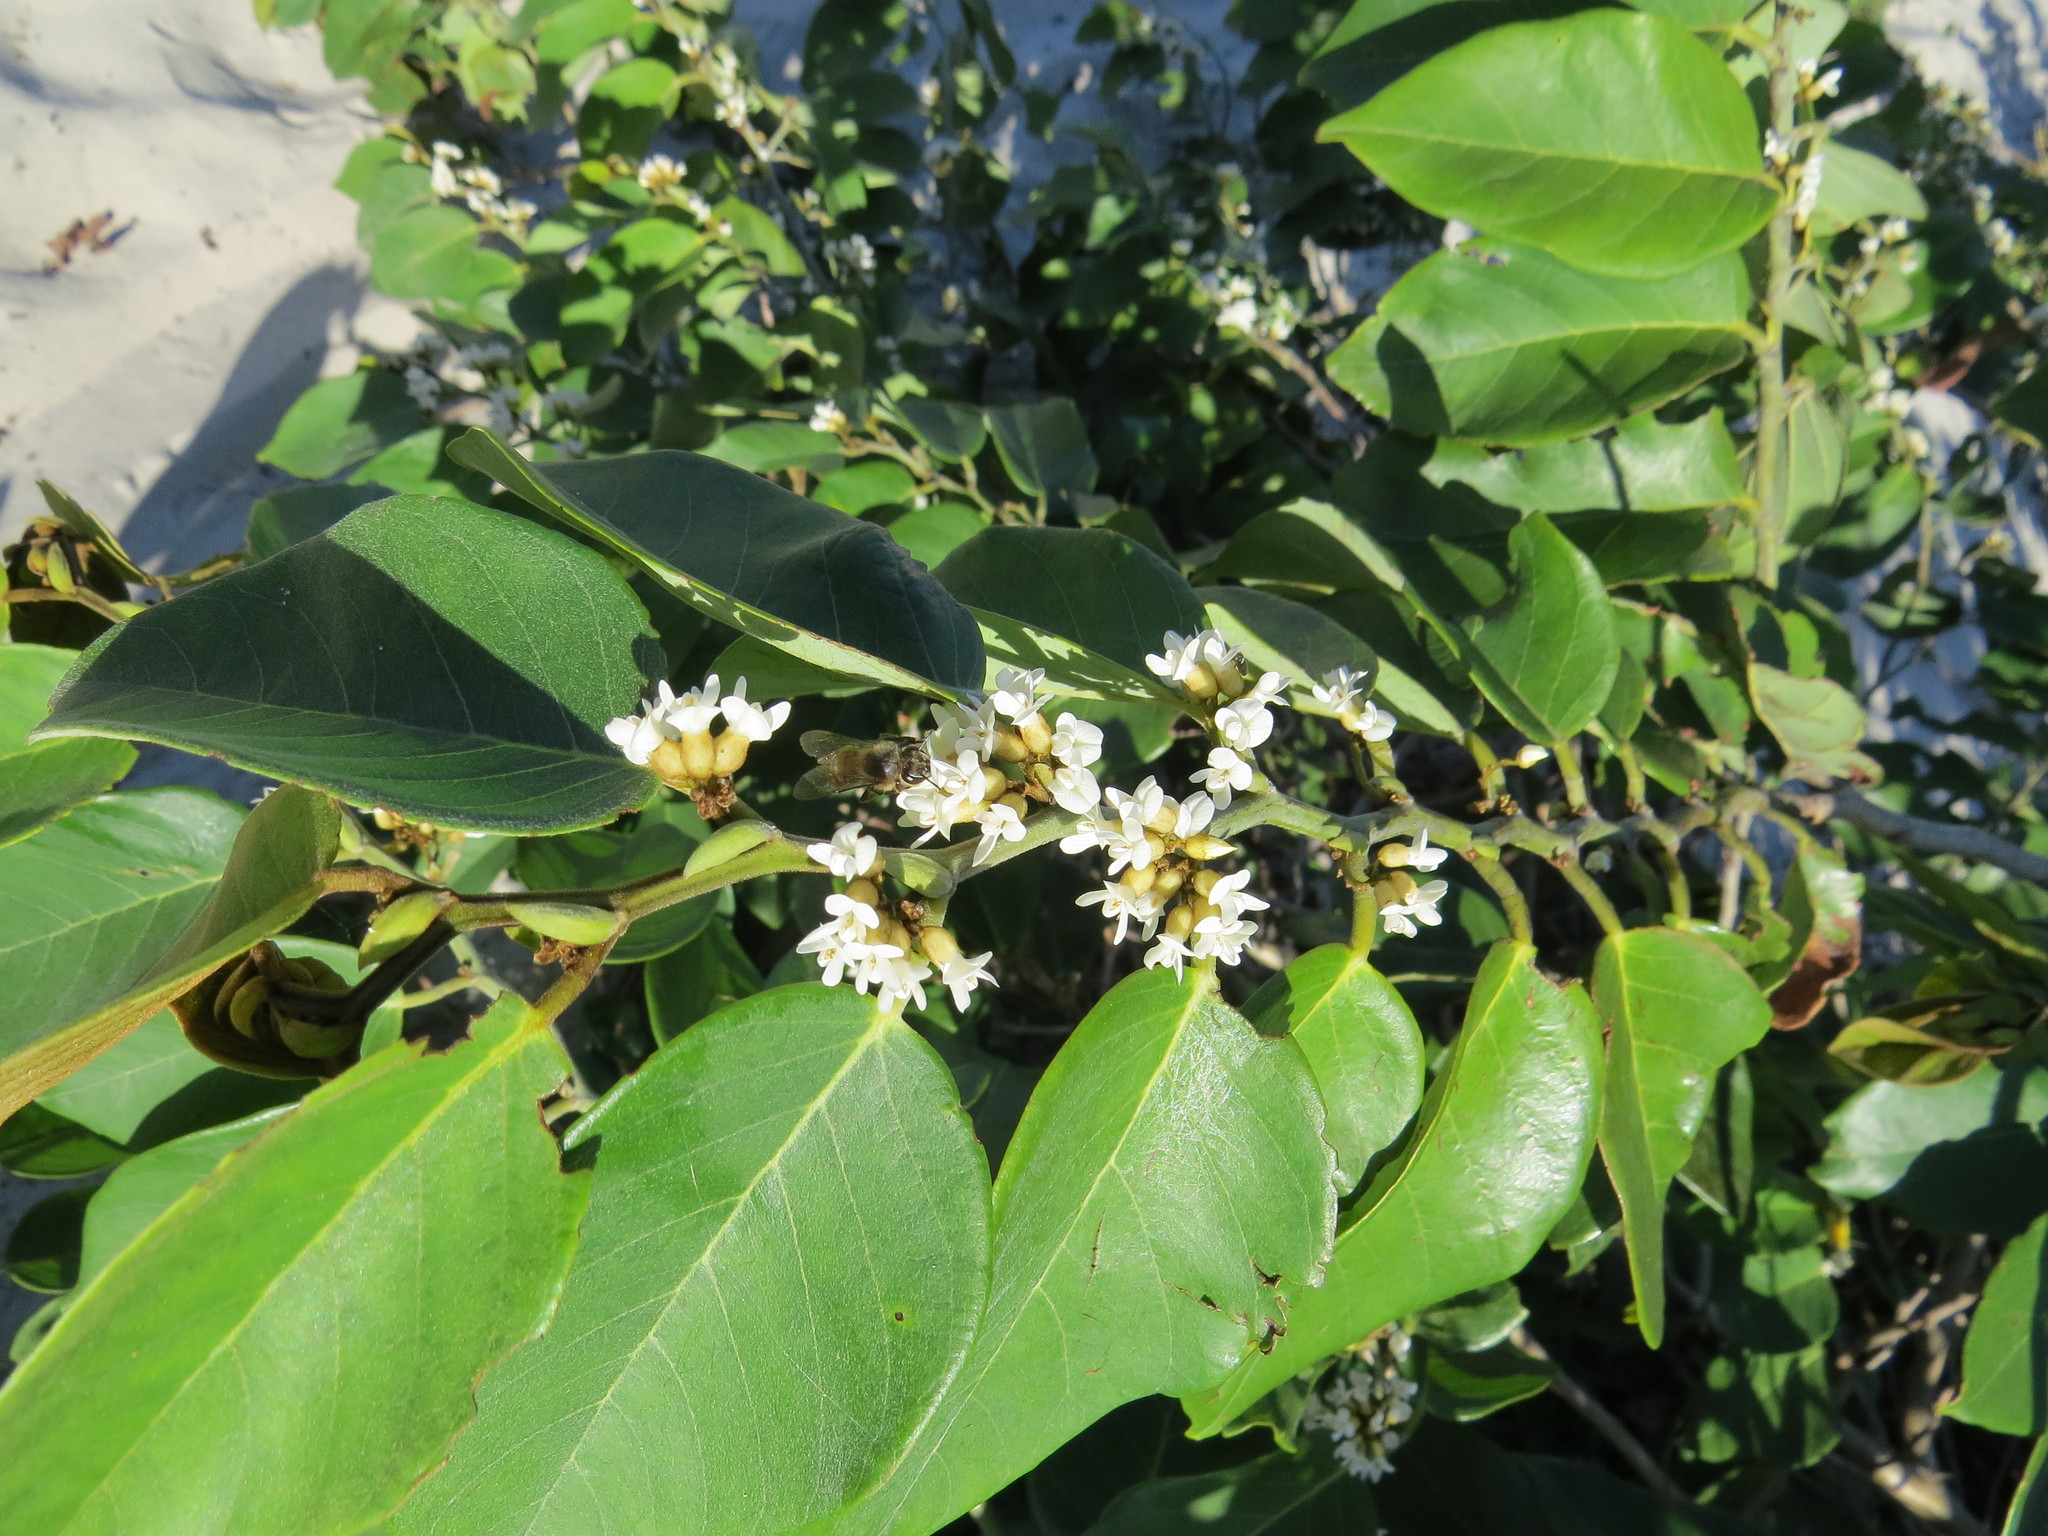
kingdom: Plantae
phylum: Tracheophyta
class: Magnoliopsida
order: Fabales
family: Fabaceae
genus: Dalbergia
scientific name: Dalbergia ecastaphyllum
